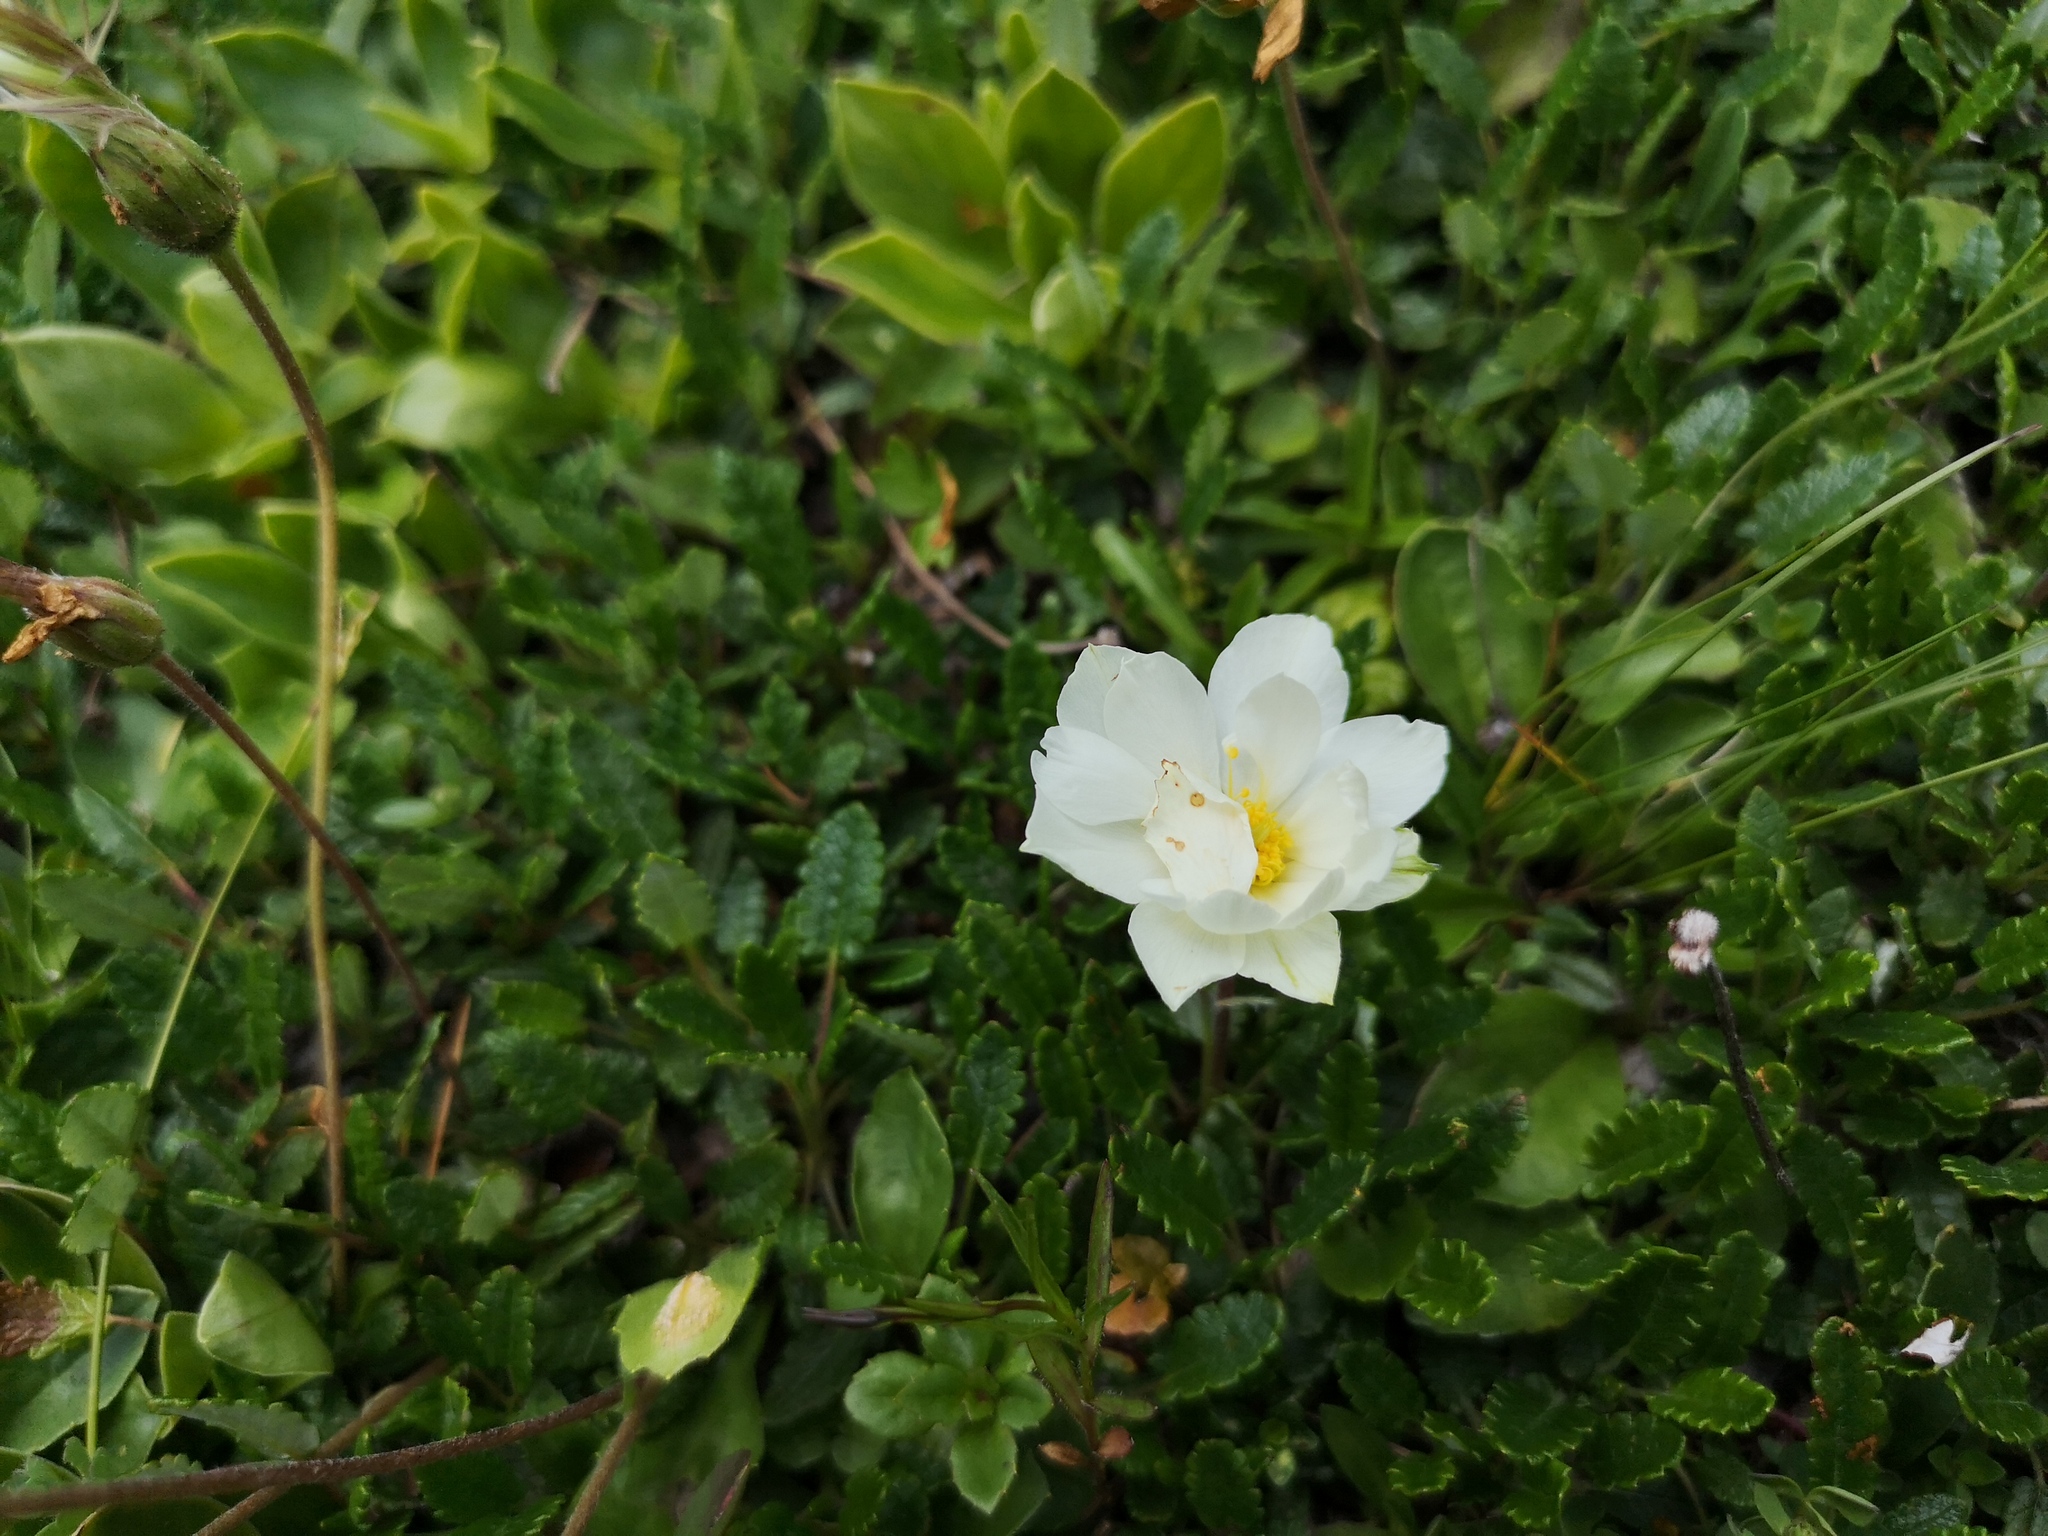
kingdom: Plantae
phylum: Tracheophyta
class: Magnoliopsida
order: Rosales
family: Rosaceae
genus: Dryas
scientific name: Dryas octopetala
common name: Eight-petal mountain-avens
